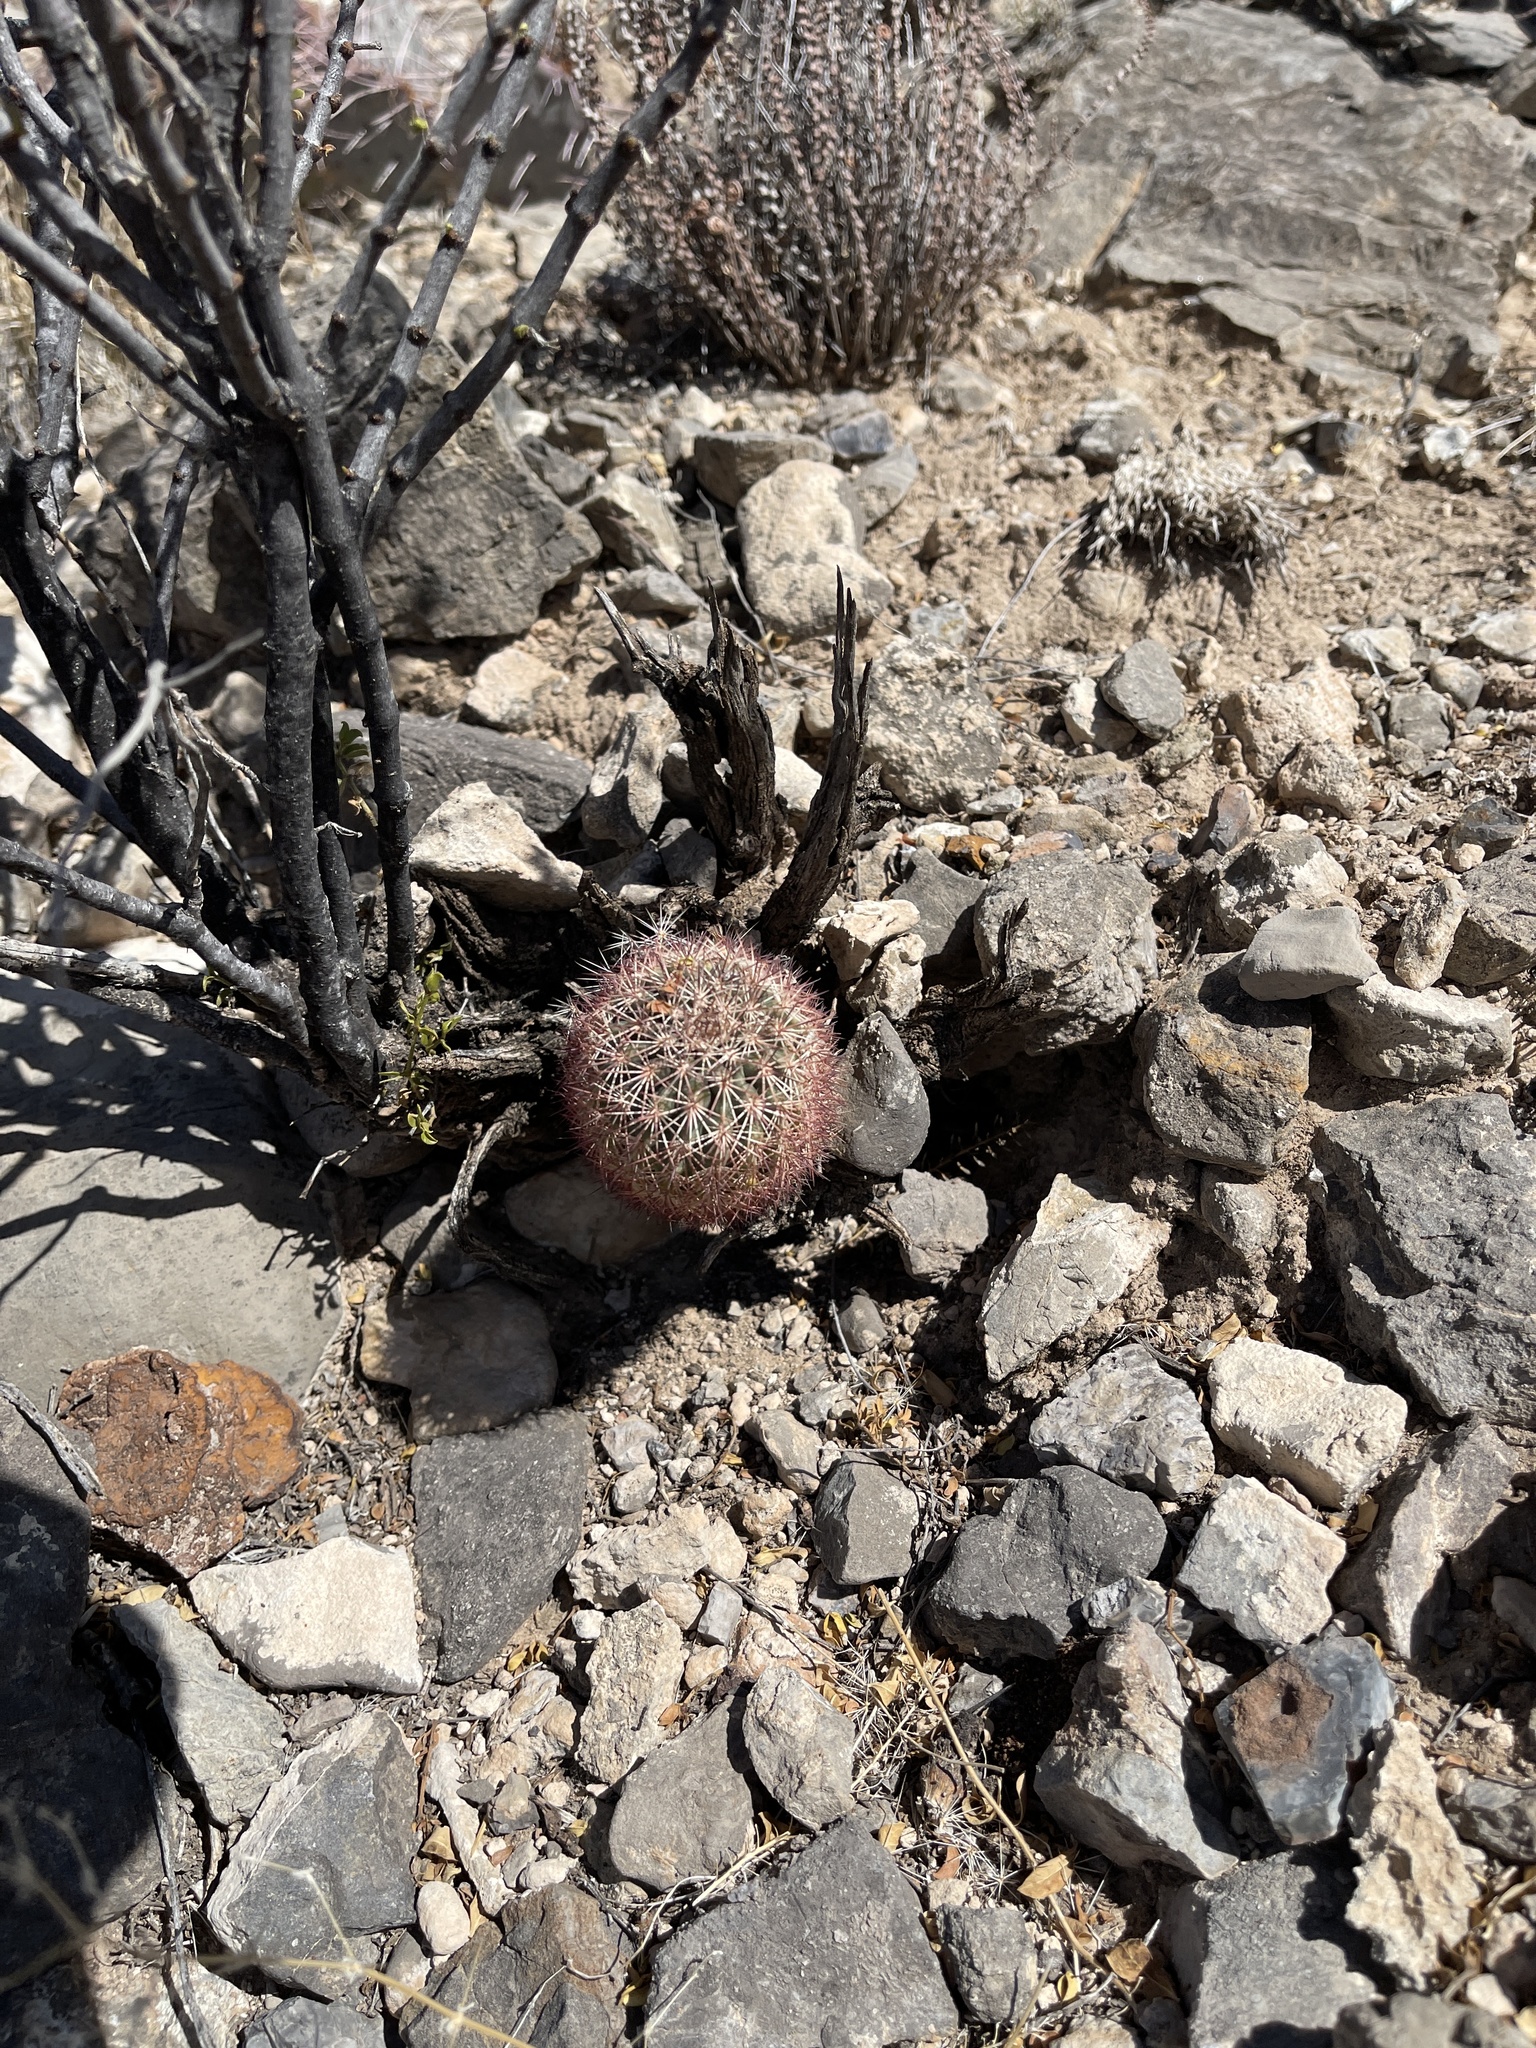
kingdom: Plantae
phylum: Tracheophyta
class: Magnoliopsida
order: Caryophyllales
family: Cactaceae
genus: Echinocereus
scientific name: Echinocereus roetteri
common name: Lloyd's hedgehog cactus
